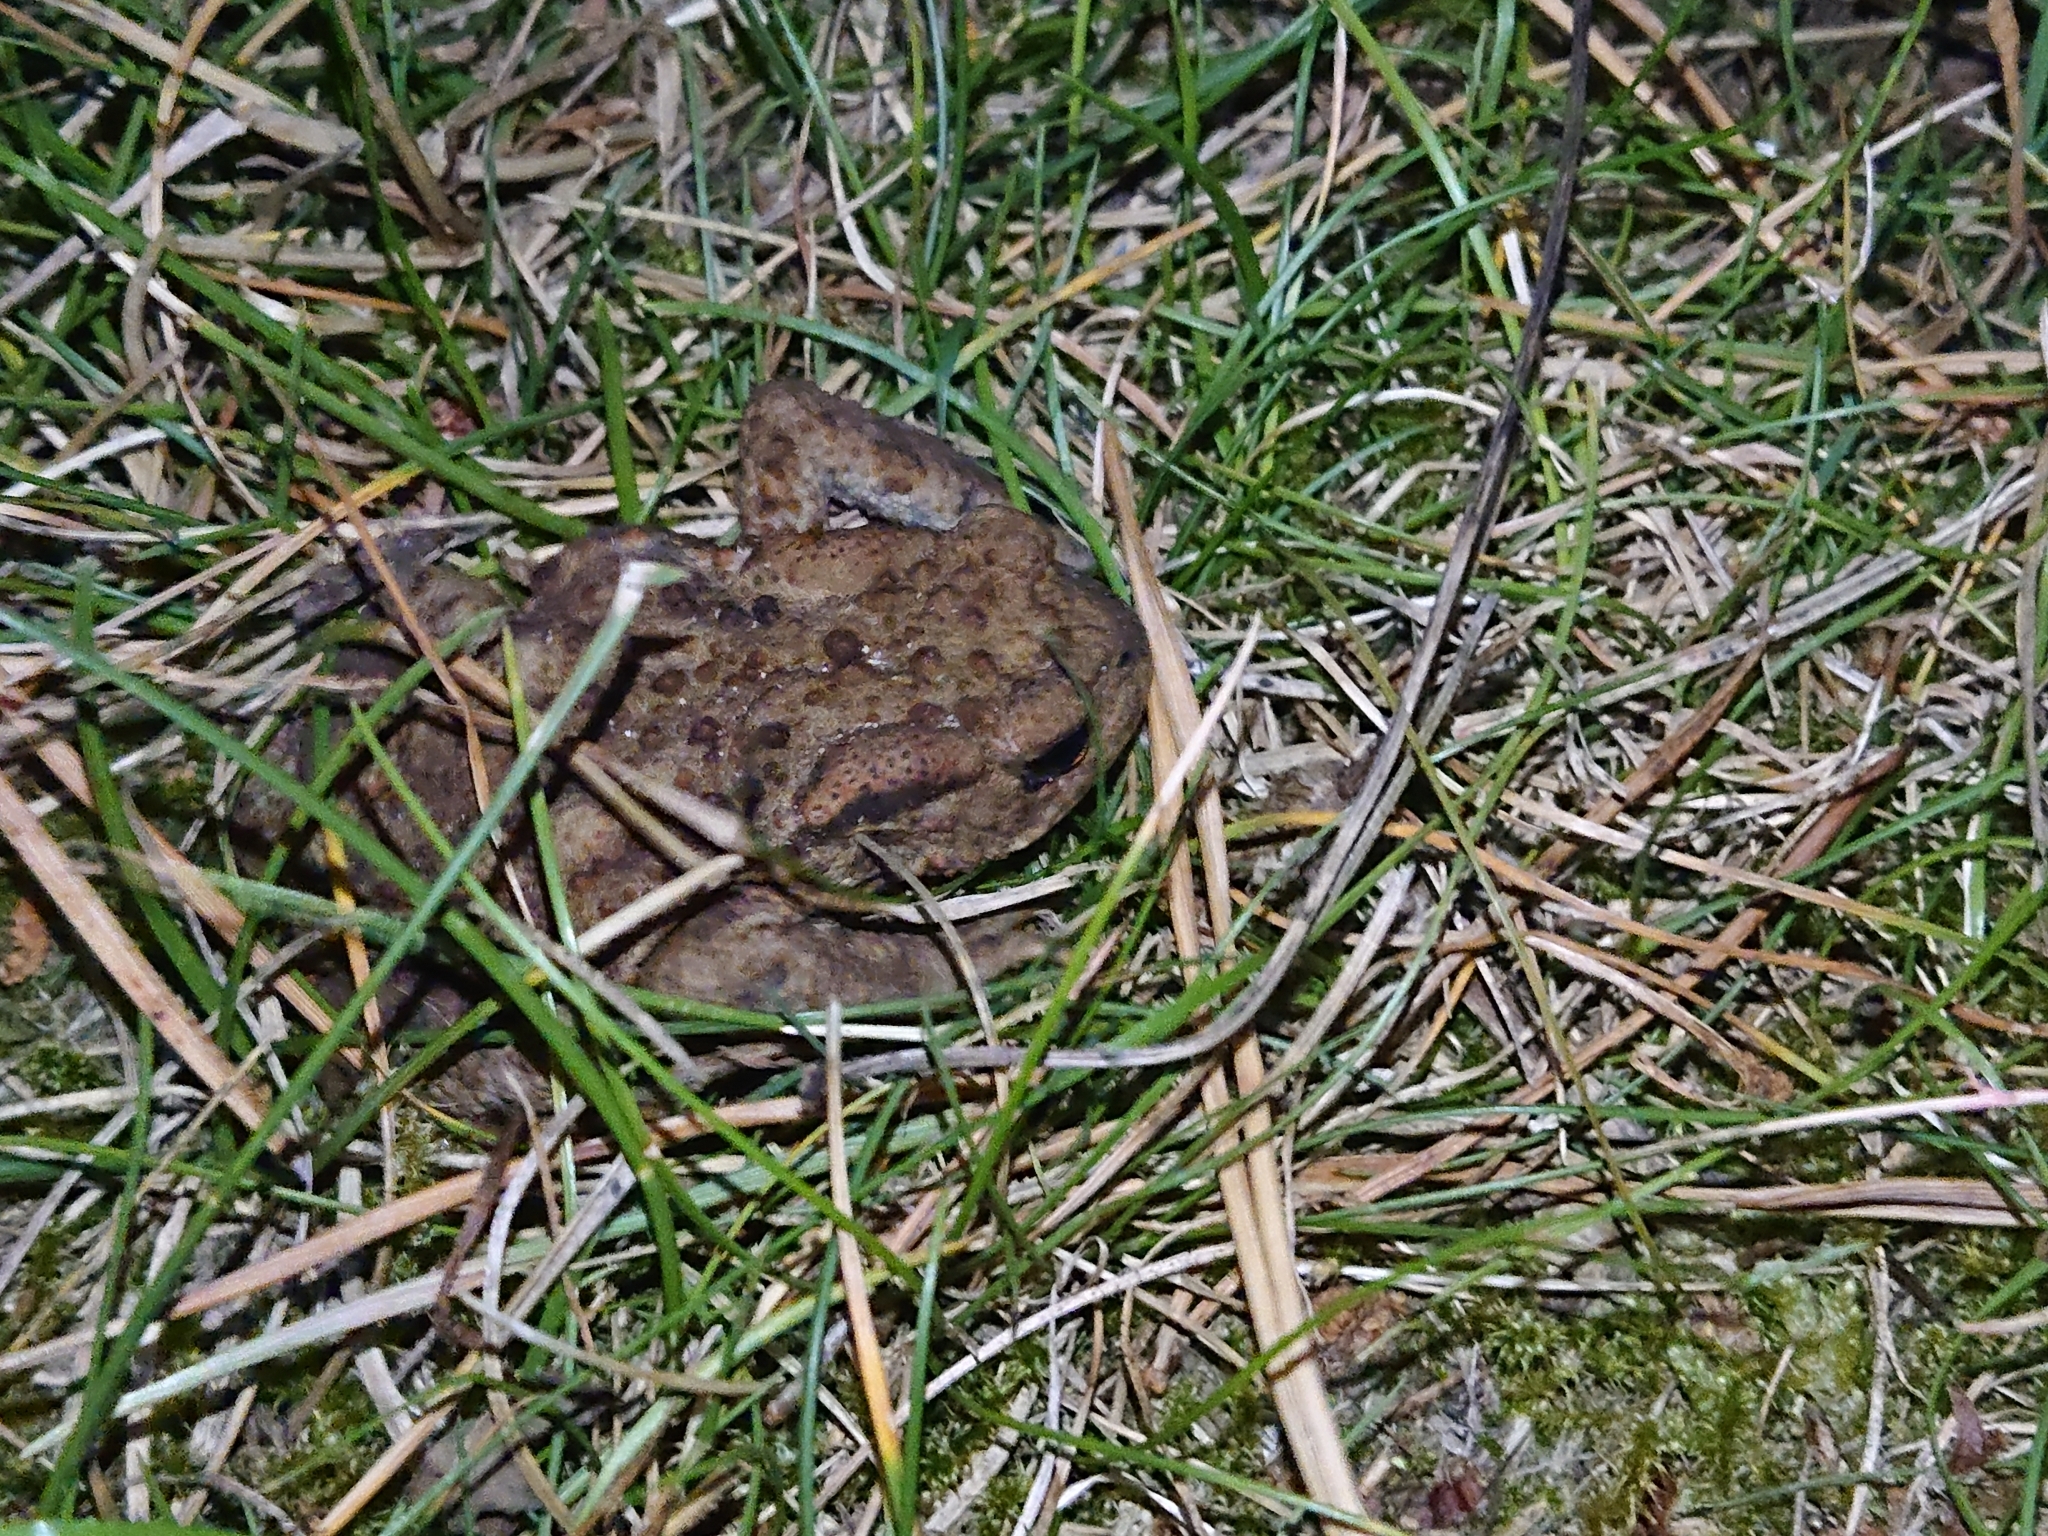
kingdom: Animalia
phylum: Chordata
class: Amphibia
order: Anura
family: Bufonidae
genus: Bufo
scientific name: Bufo bufo
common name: Common toad
